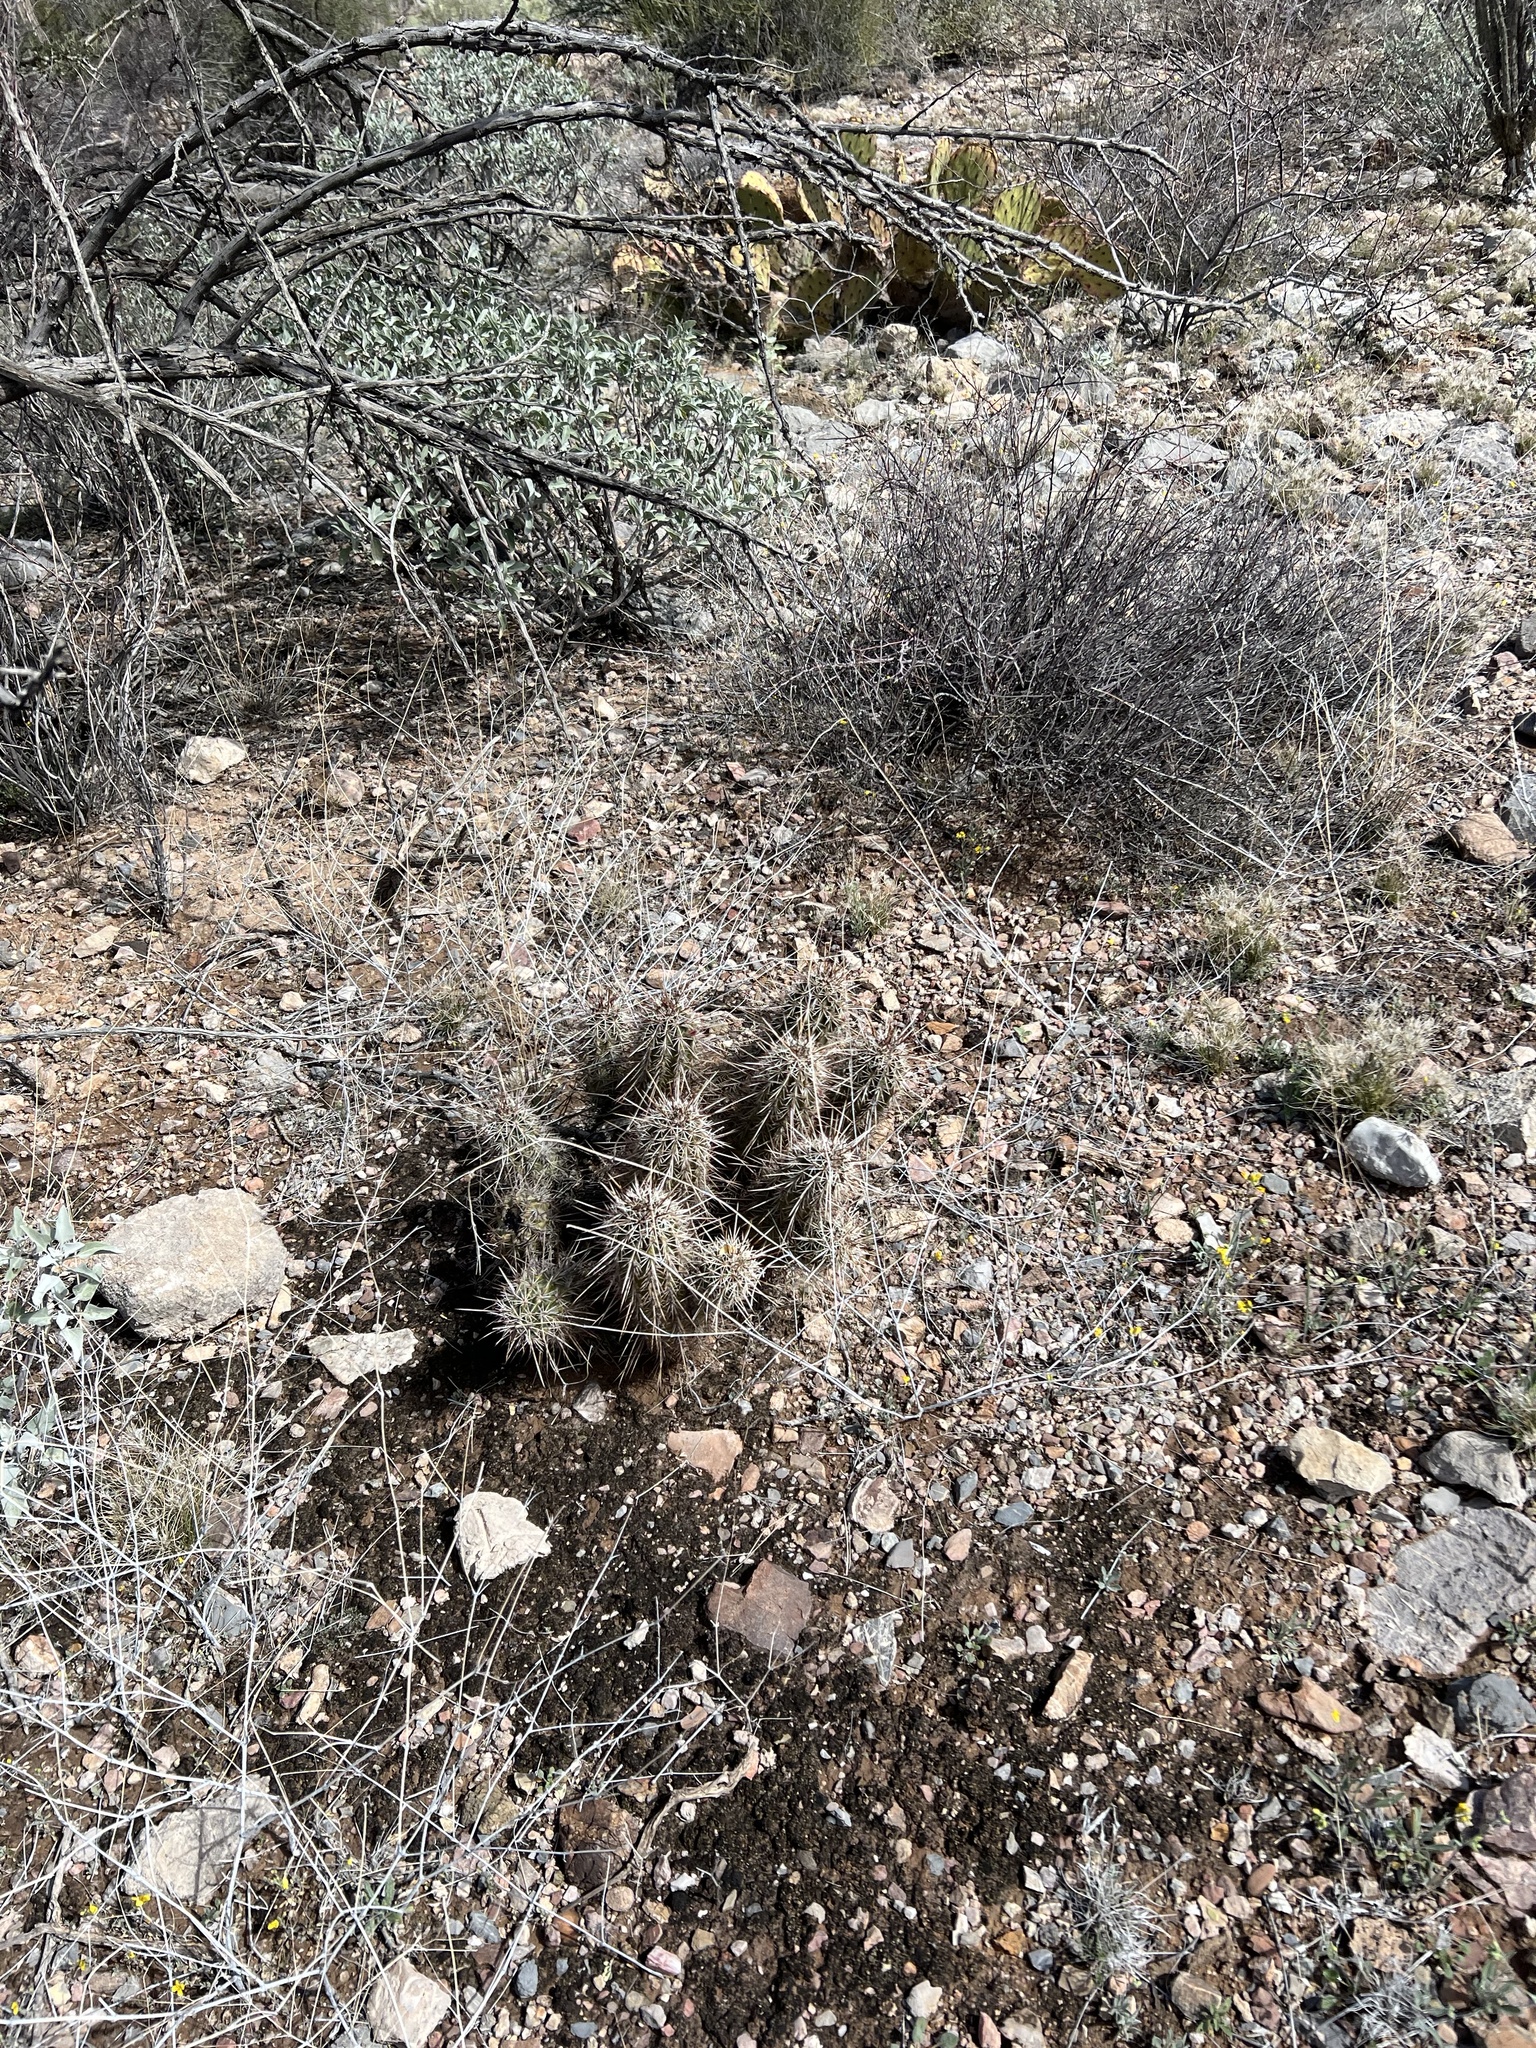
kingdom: Plantae
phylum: Tracheophyta
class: Magnoliopsida
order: Caryophyllales
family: Cactaceae
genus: Echinocereus
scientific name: Echinocereus fasciculatus
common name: Bundle hedgehog
